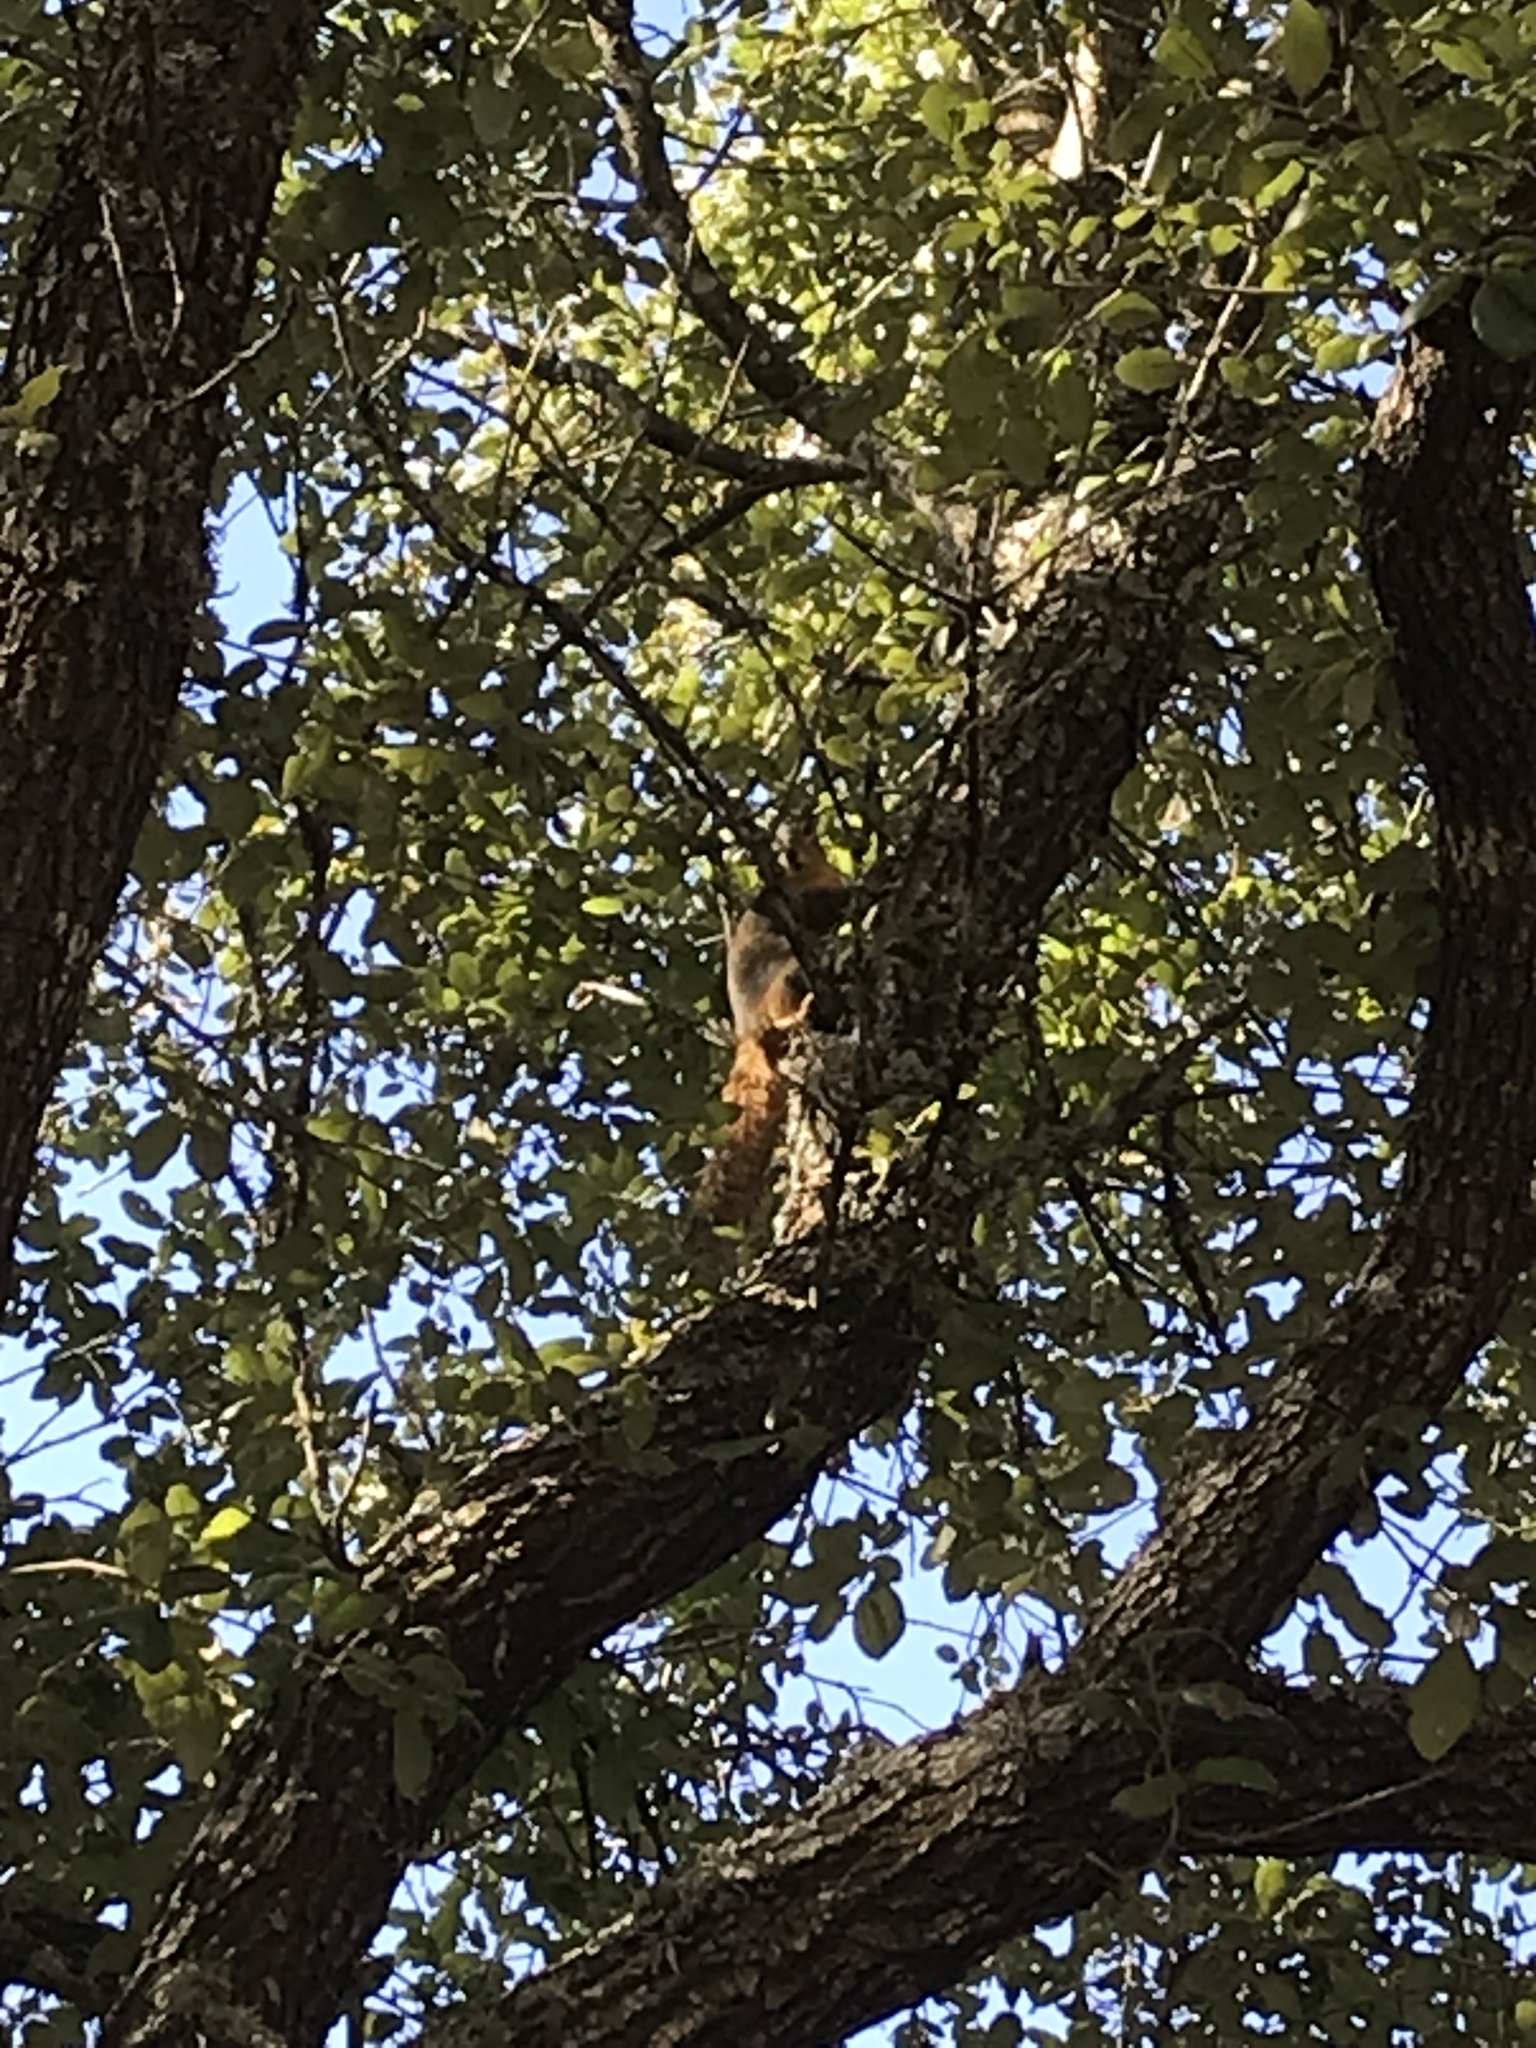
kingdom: Animalia
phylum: Chordata
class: Mammalia
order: Rodentia
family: Sciuridae
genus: Sciurus
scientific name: Sciurus niger
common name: Fox squirrel
